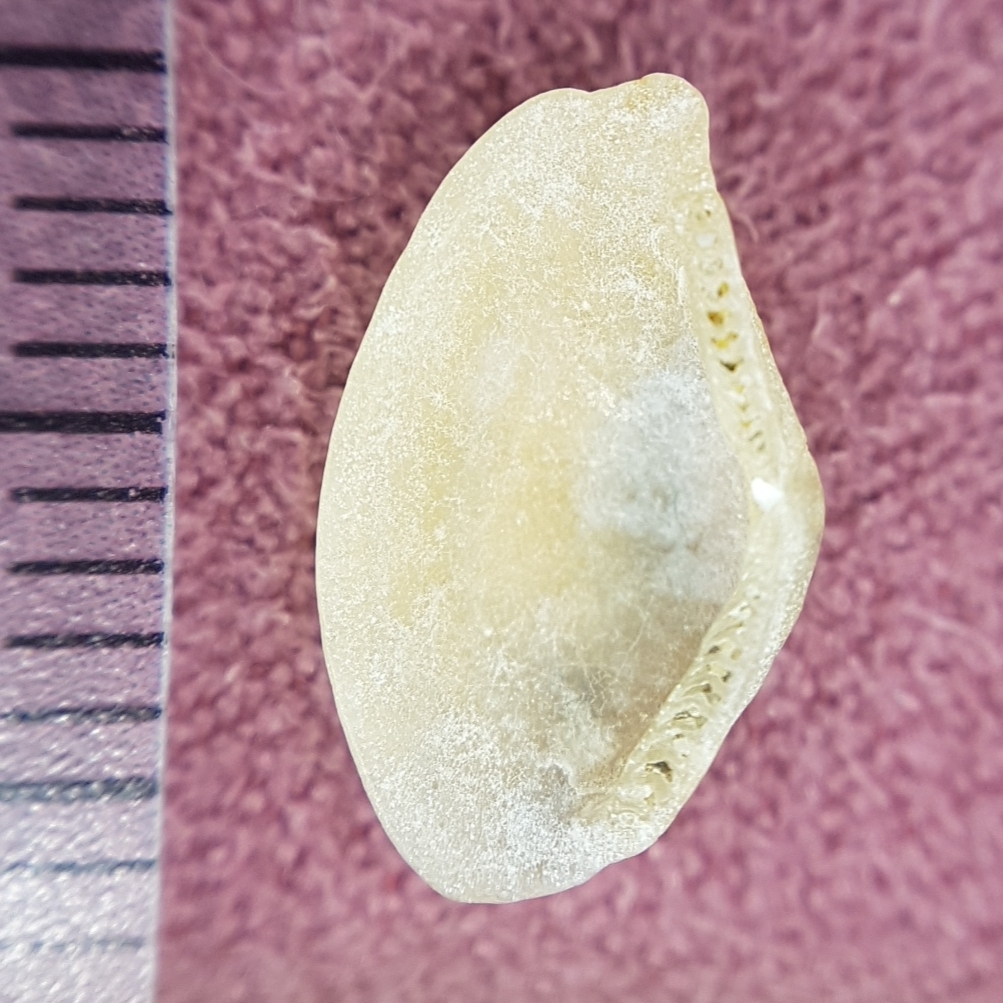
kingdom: Animalia
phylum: Mollusca
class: Bivalvia
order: Nuculanida
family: Nuculanidae
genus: Lembulus
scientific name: Lembulus pella
